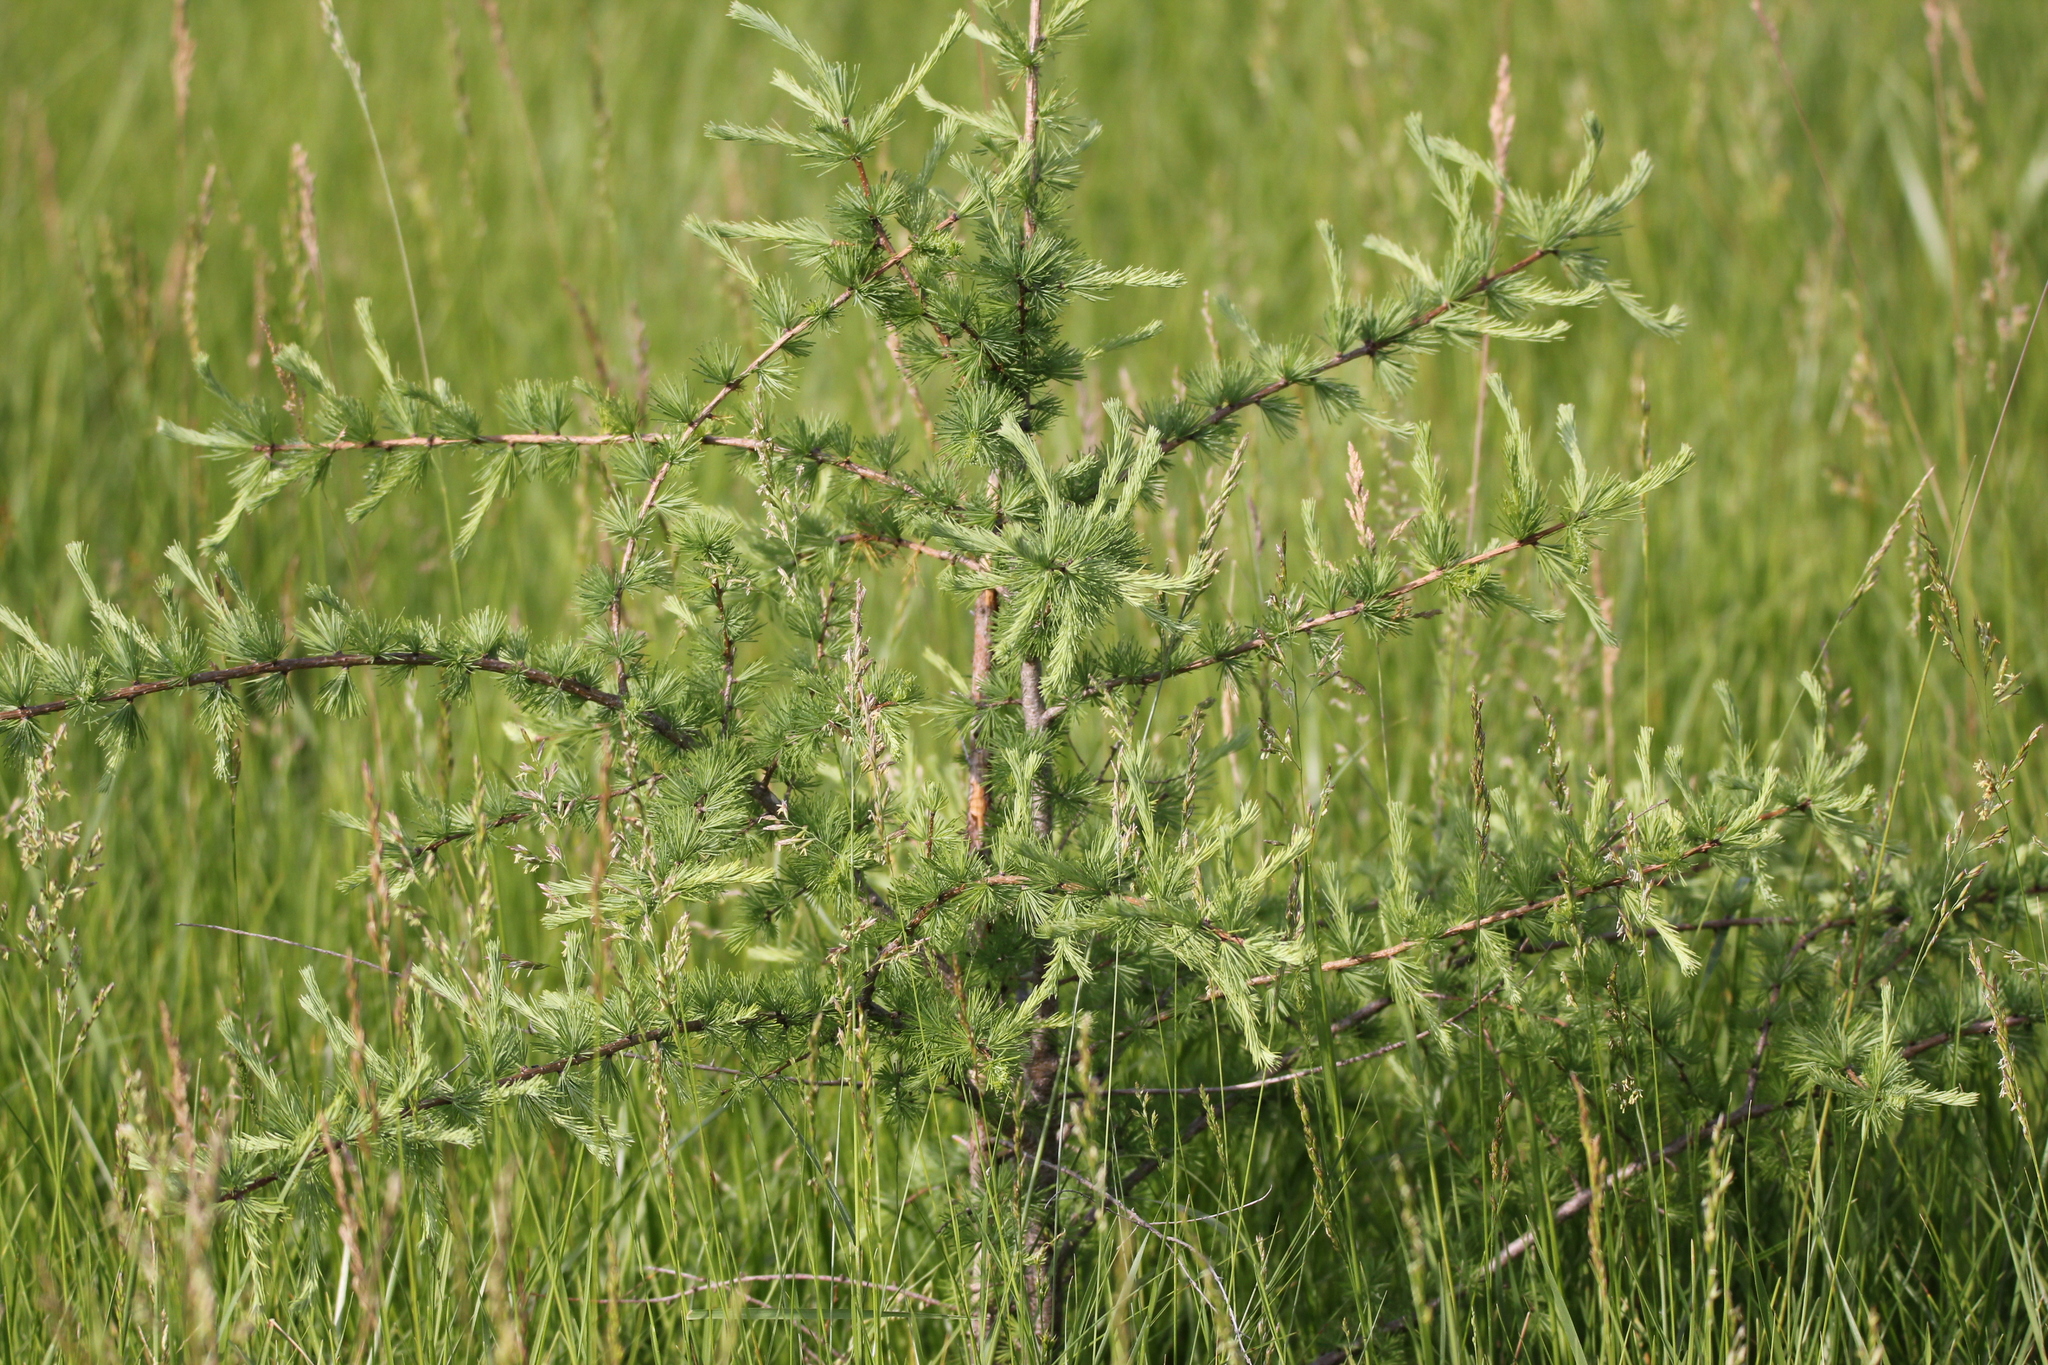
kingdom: Plantae
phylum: Tracheophyta
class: Pinopsida
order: Pinales
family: Pinaceae
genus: Larix
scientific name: Larix laricina
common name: American larch
